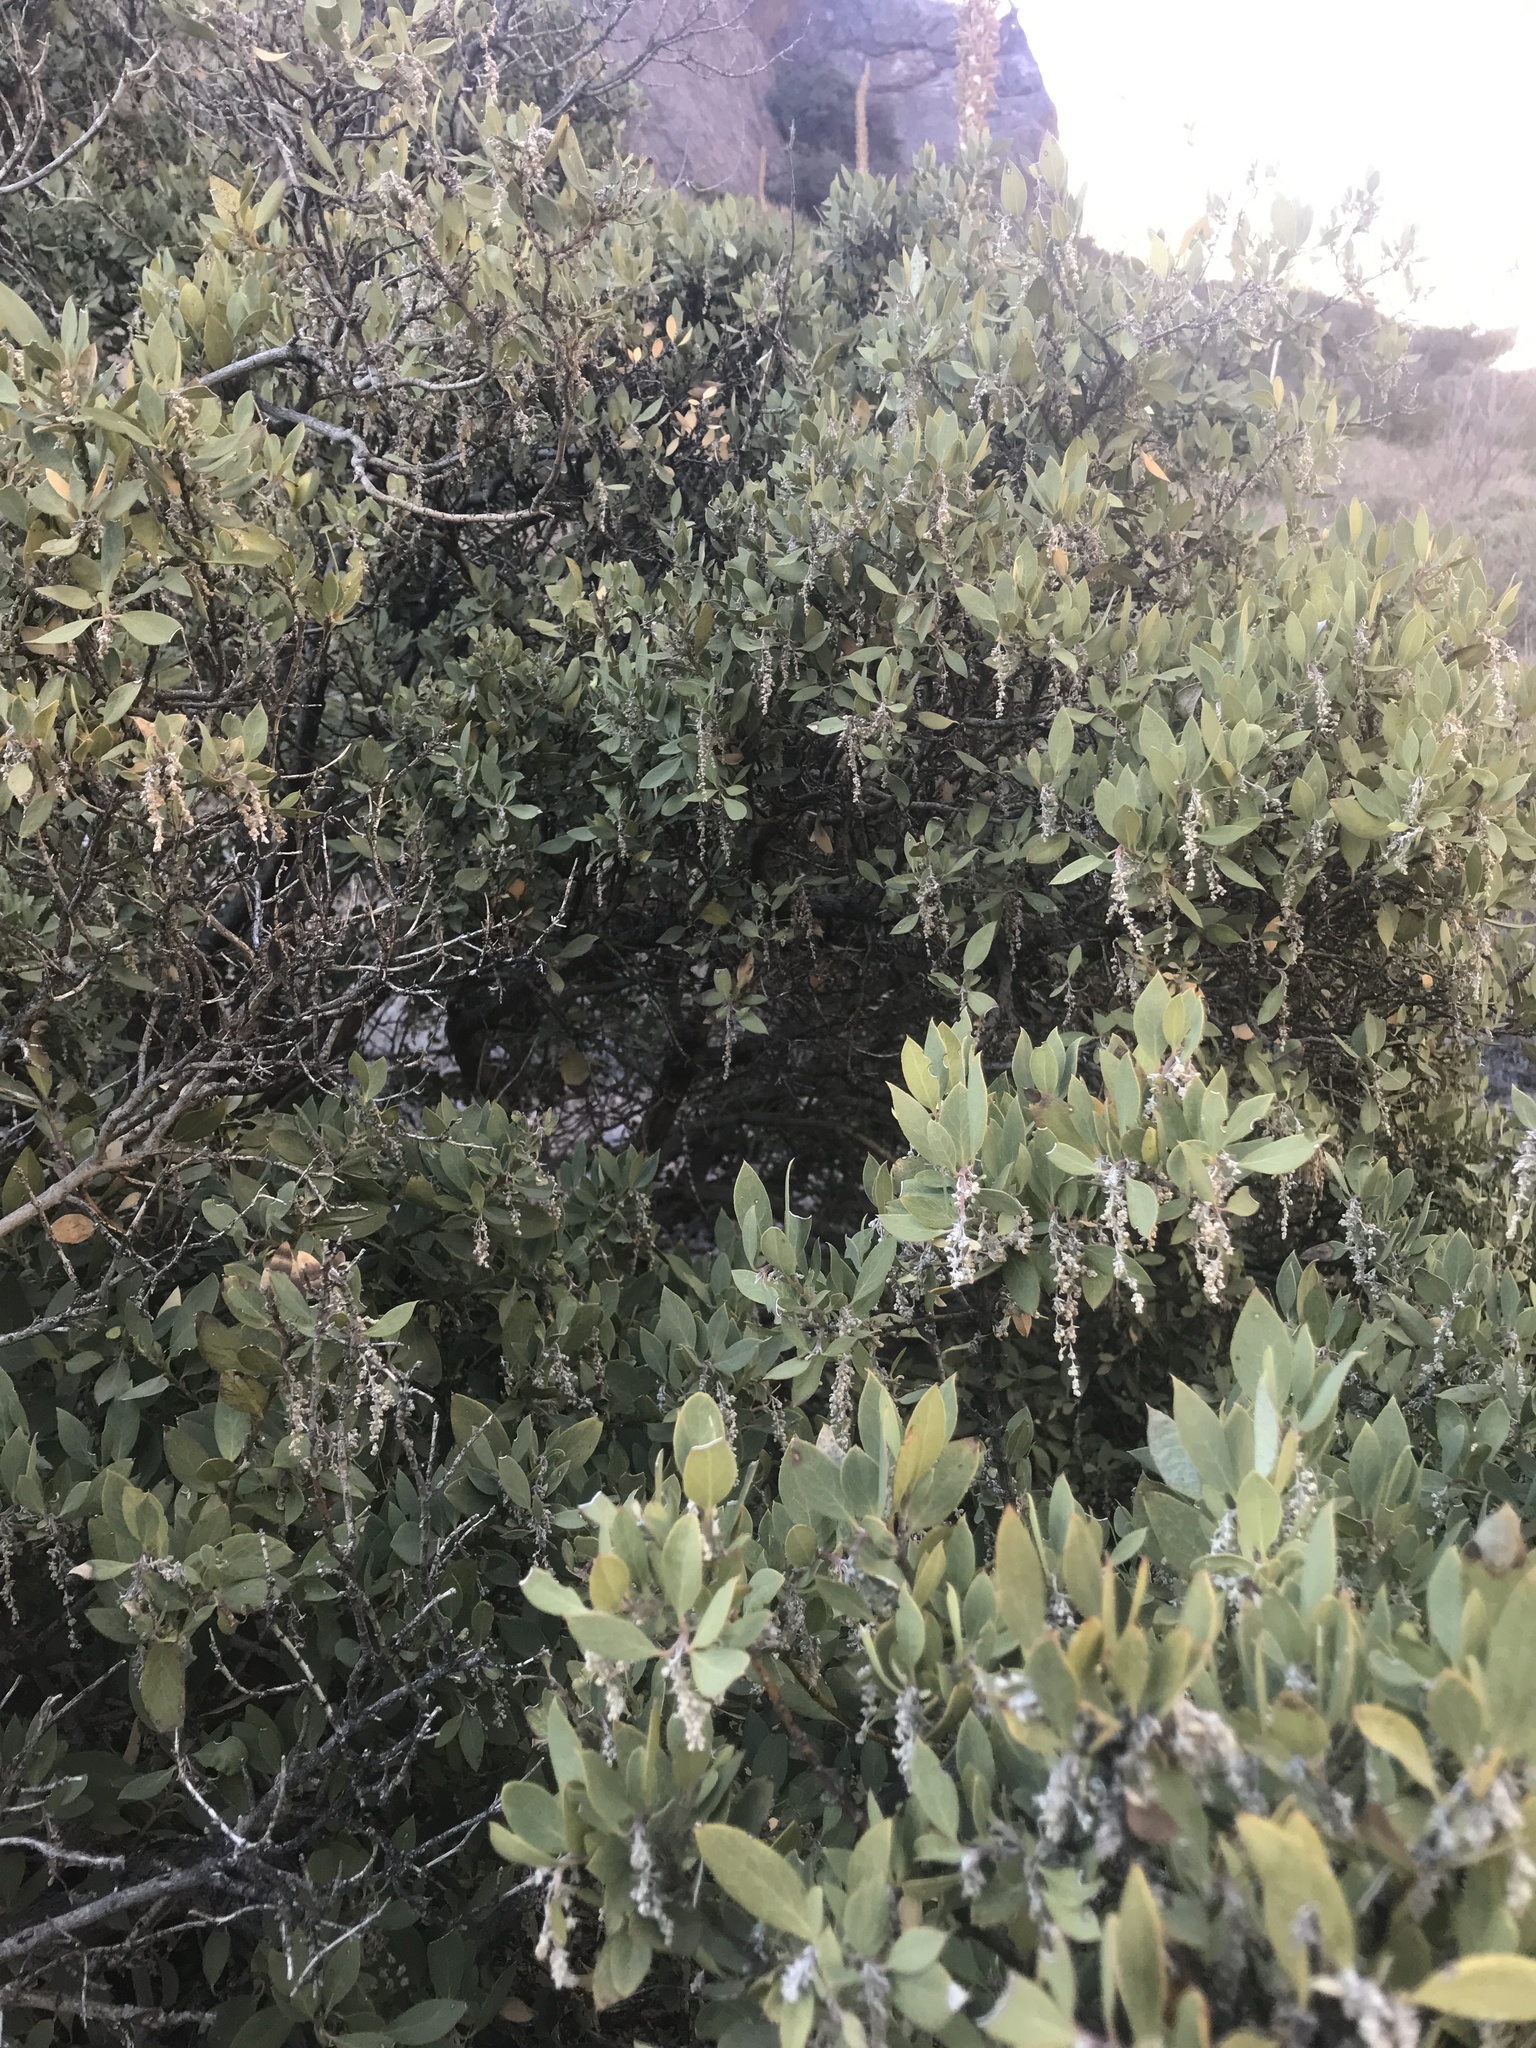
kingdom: Plantae
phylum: Tracheophyta
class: Magnoliopsida
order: Garryales
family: Garryaceae
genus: Garrya
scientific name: Garrya wrightii
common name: Wright's silktassel
